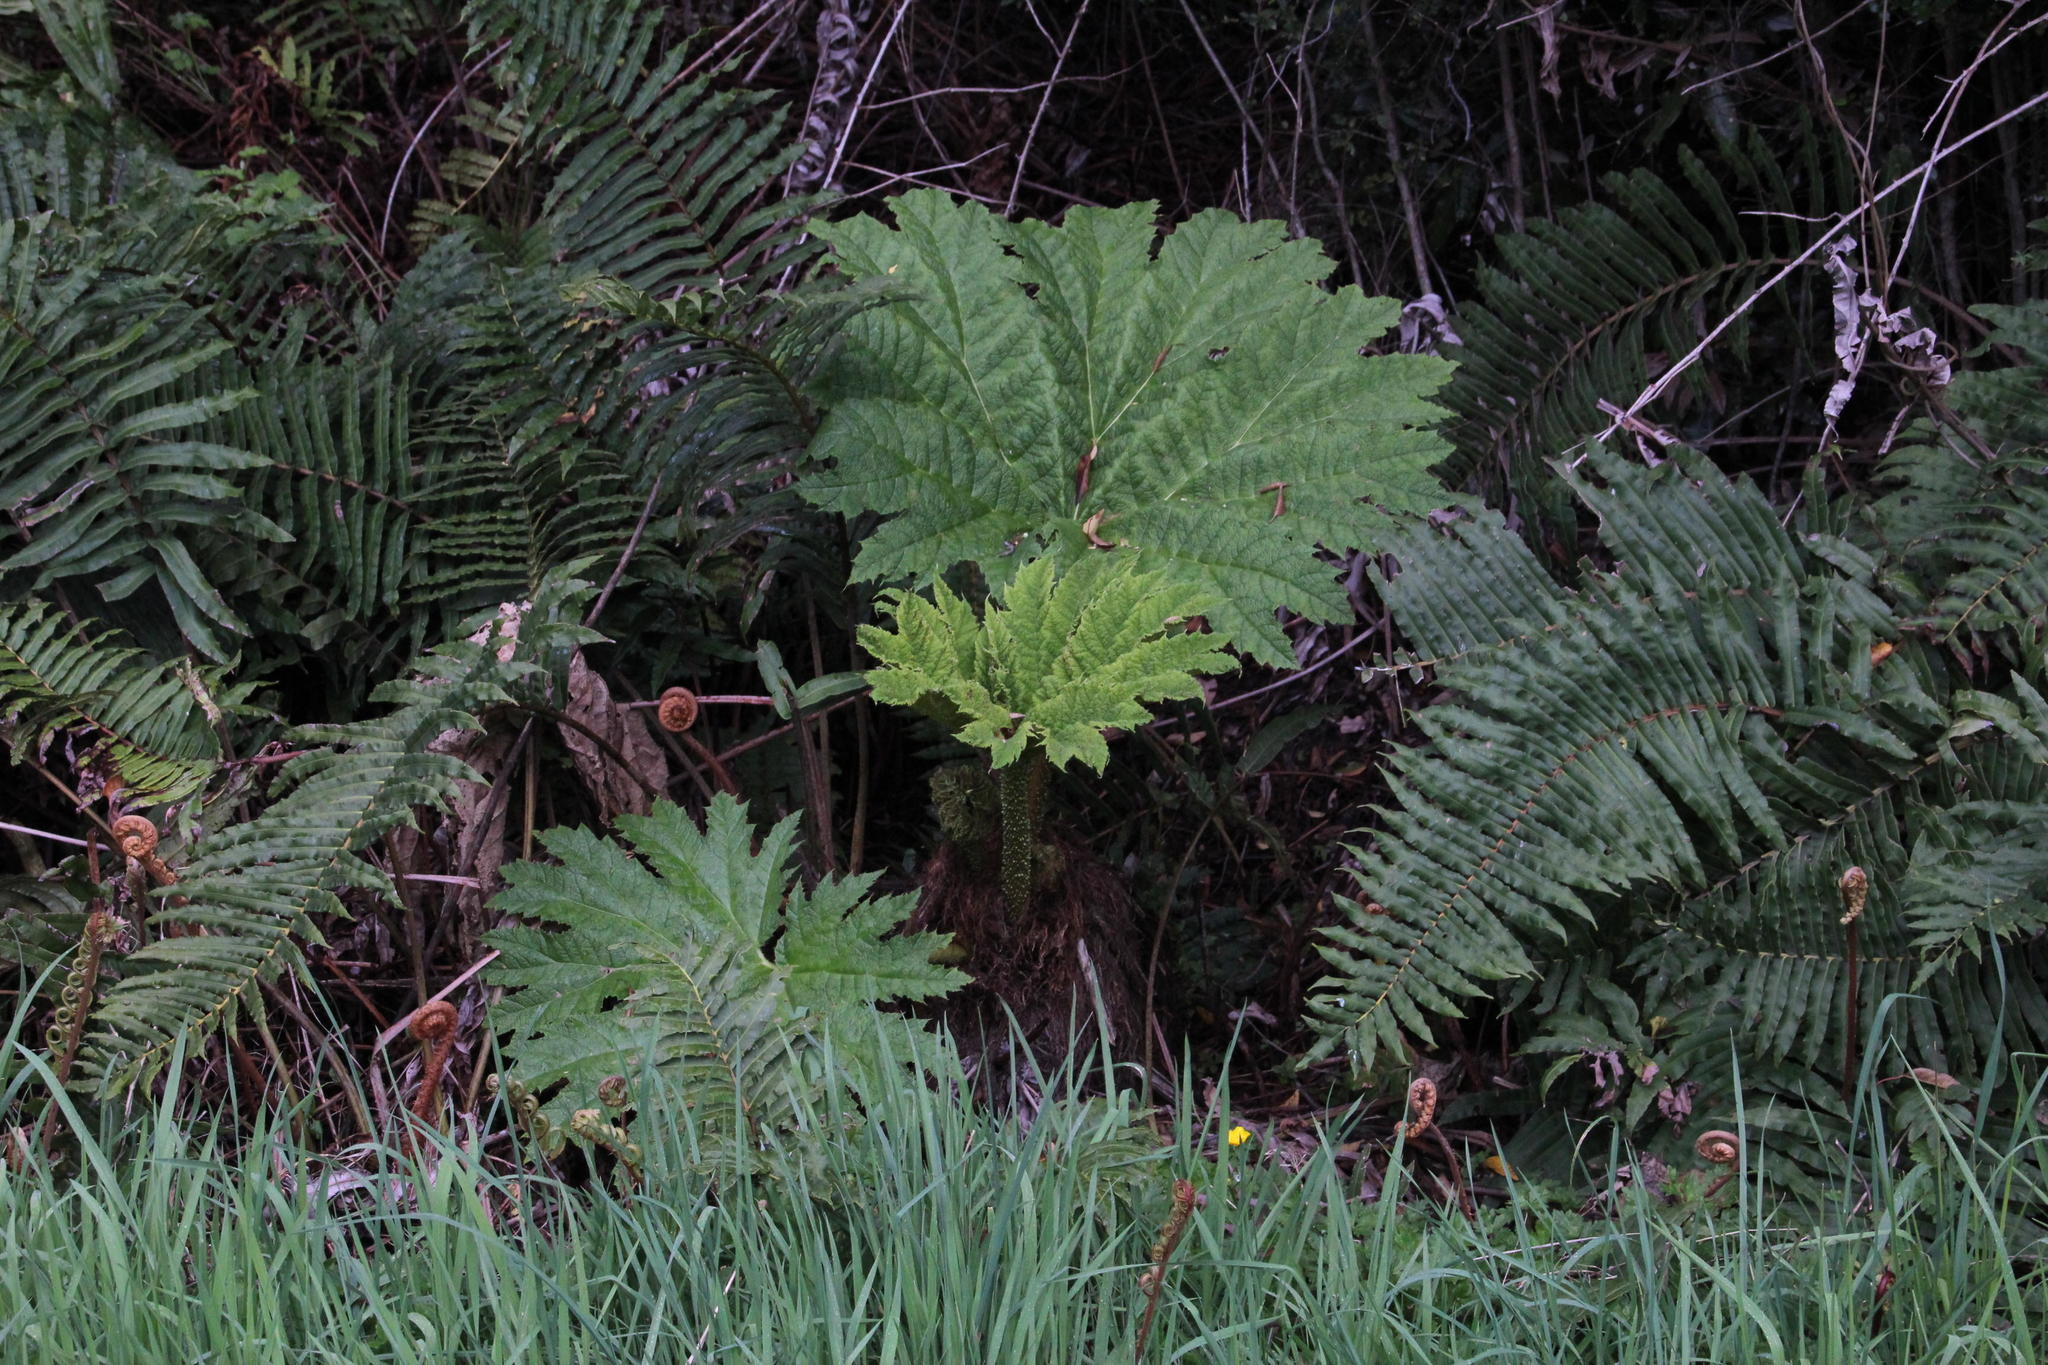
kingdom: Plantae
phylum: Tracheophyta
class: Magnoliopsida
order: Gunnerales
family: Gunneraceae
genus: Gunnera
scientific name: Gunnera tinctoria
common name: Giant-rhubarb
